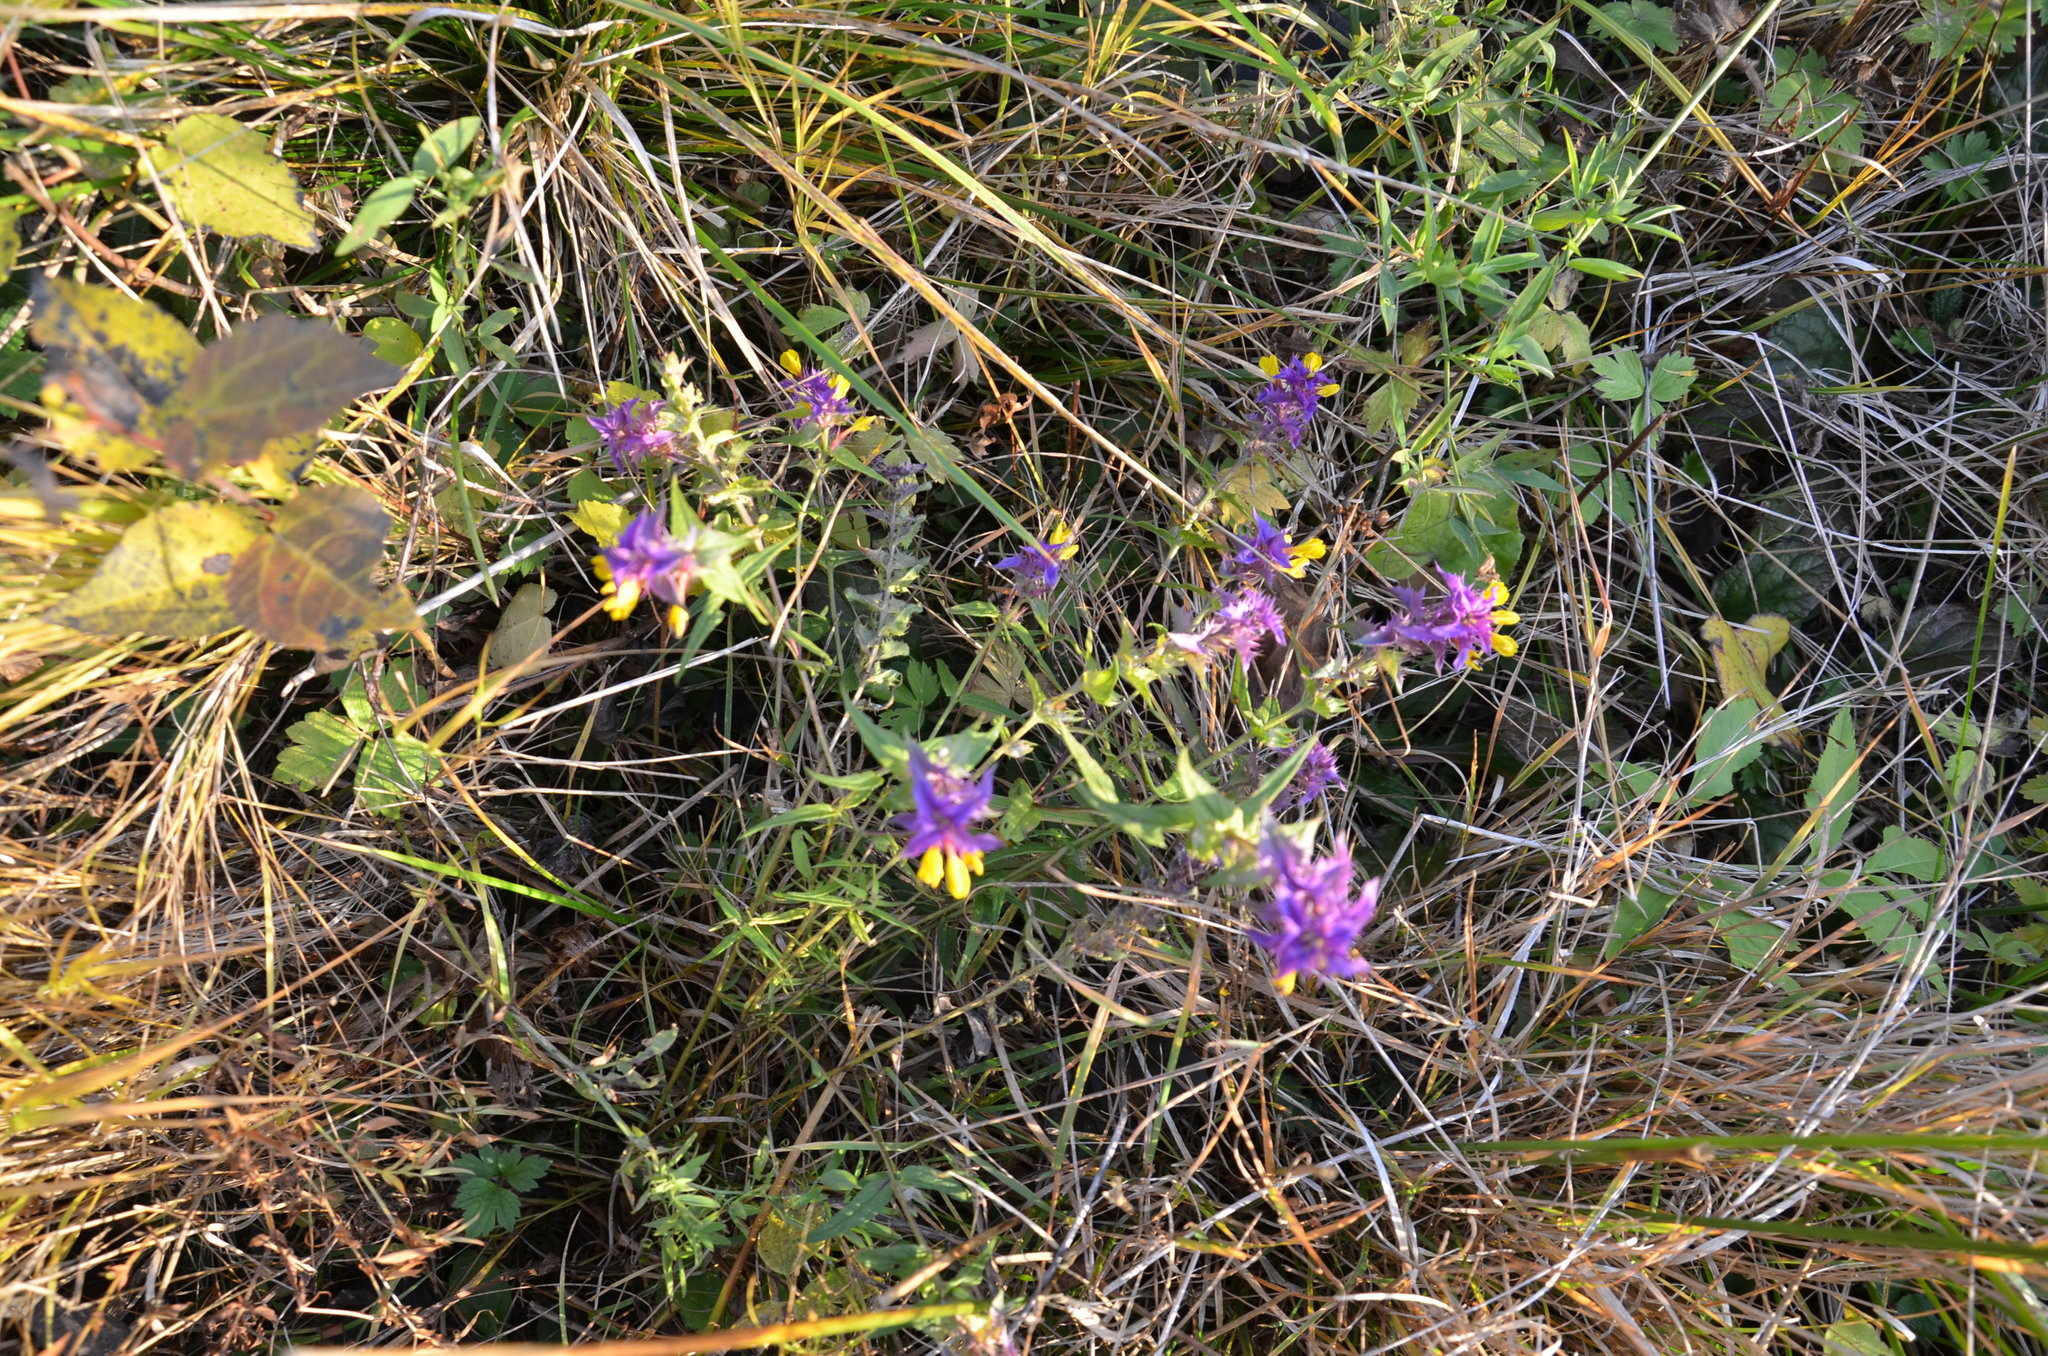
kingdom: Plantae
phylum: Tracheophyta
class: Magnoliopsida
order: Lamiales
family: Orobanchaceae
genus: Melampyrum
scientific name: Melampyrum nemorosum
